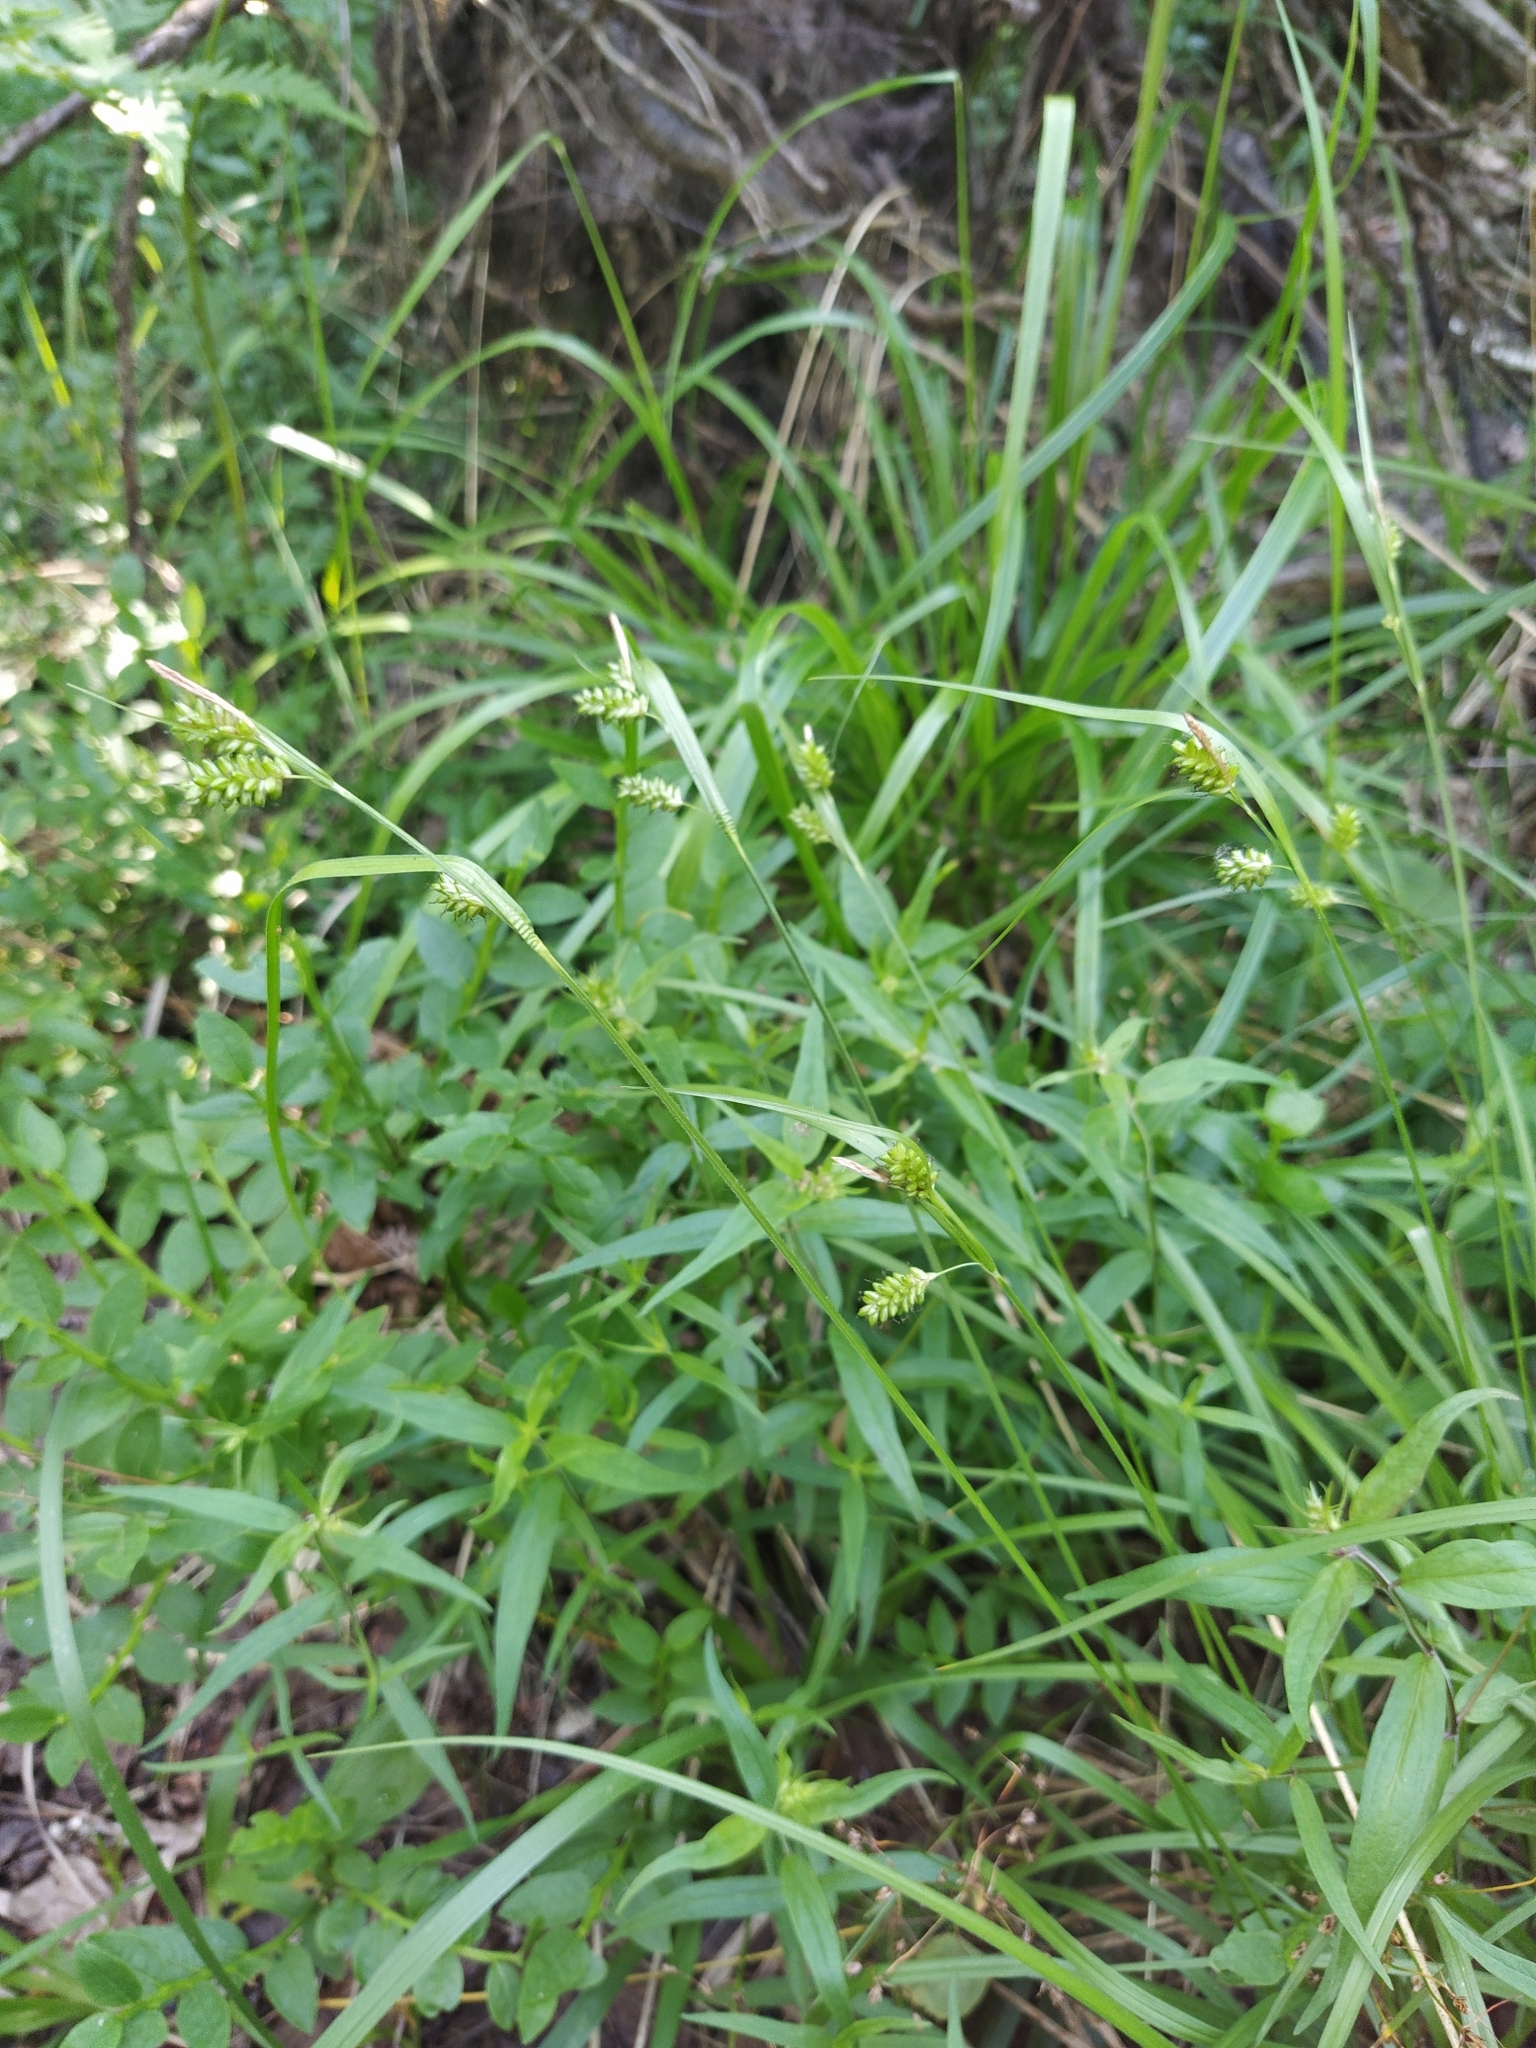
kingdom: Plantae
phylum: Tracheophyta
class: Liliopsida
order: Poales
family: Cyperaceae
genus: Carex
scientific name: Carex pallescens
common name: Pale sedge
